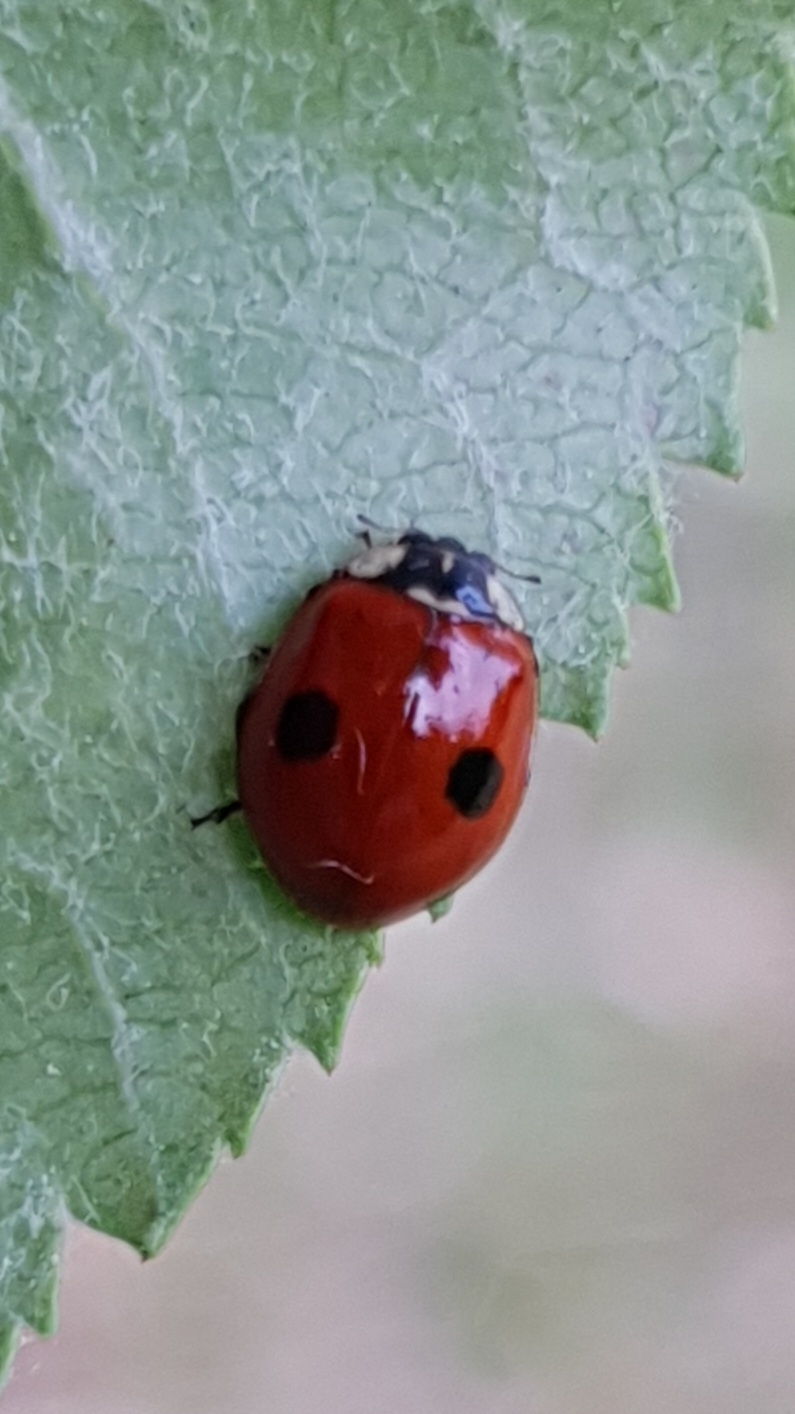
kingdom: Animalia
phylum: Arthropoda
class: Insecta
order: Coleoptera
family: Coccinellidae
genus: Adalia
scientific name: Adalia bipunctata
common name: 2-spot ladybird
